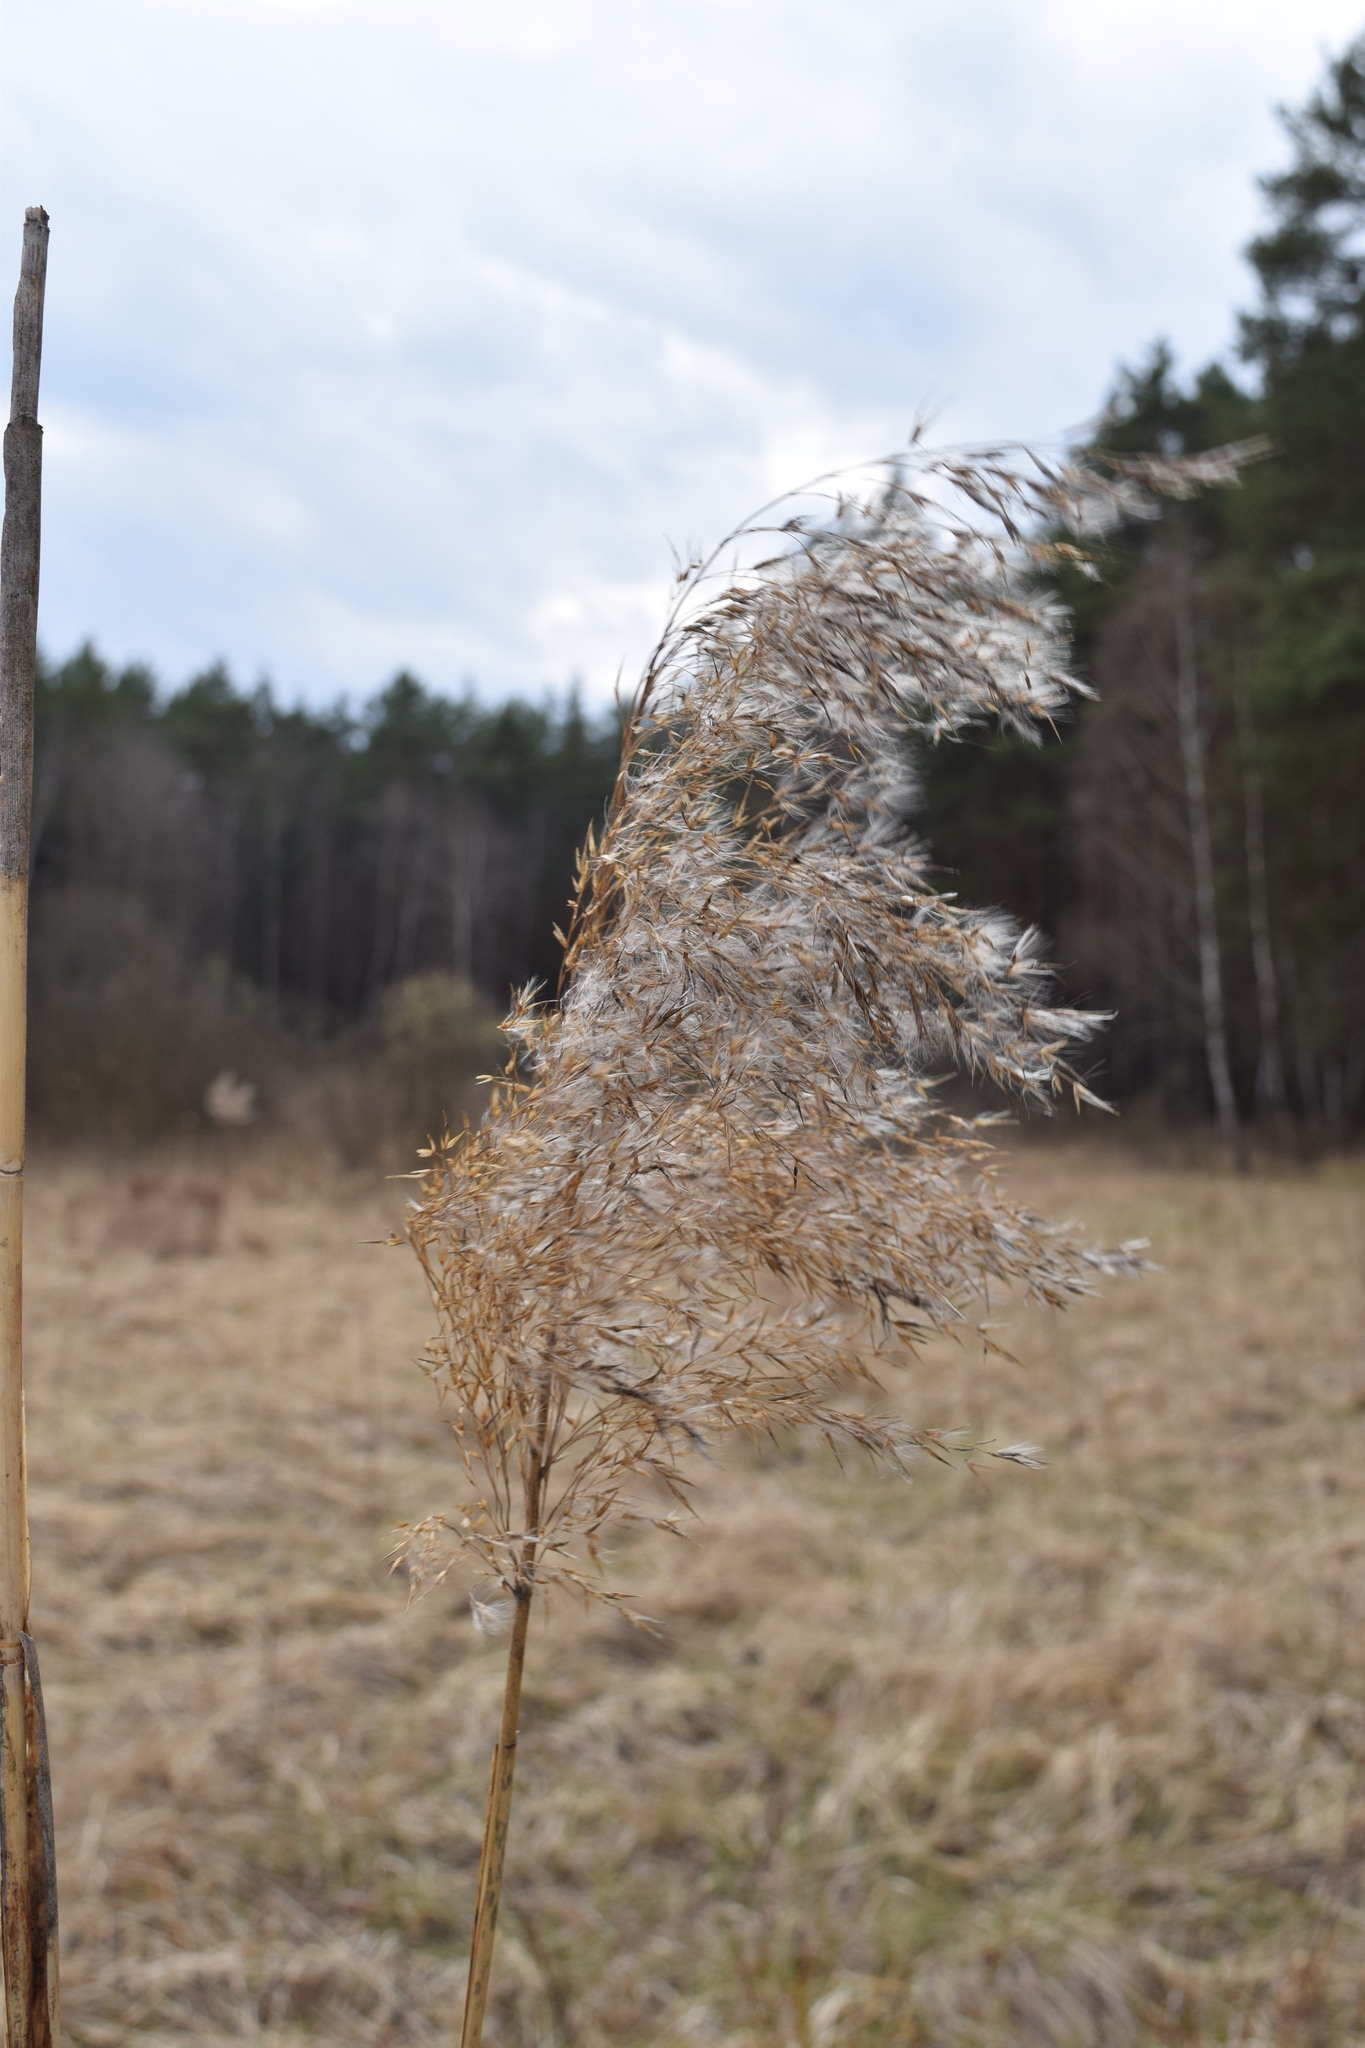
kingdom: Plantae
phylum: Tracheophyta
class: Liliopsida
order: Poales
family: Poaceae
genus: Phragmites
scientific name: Phragmites australis
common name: Common reed
